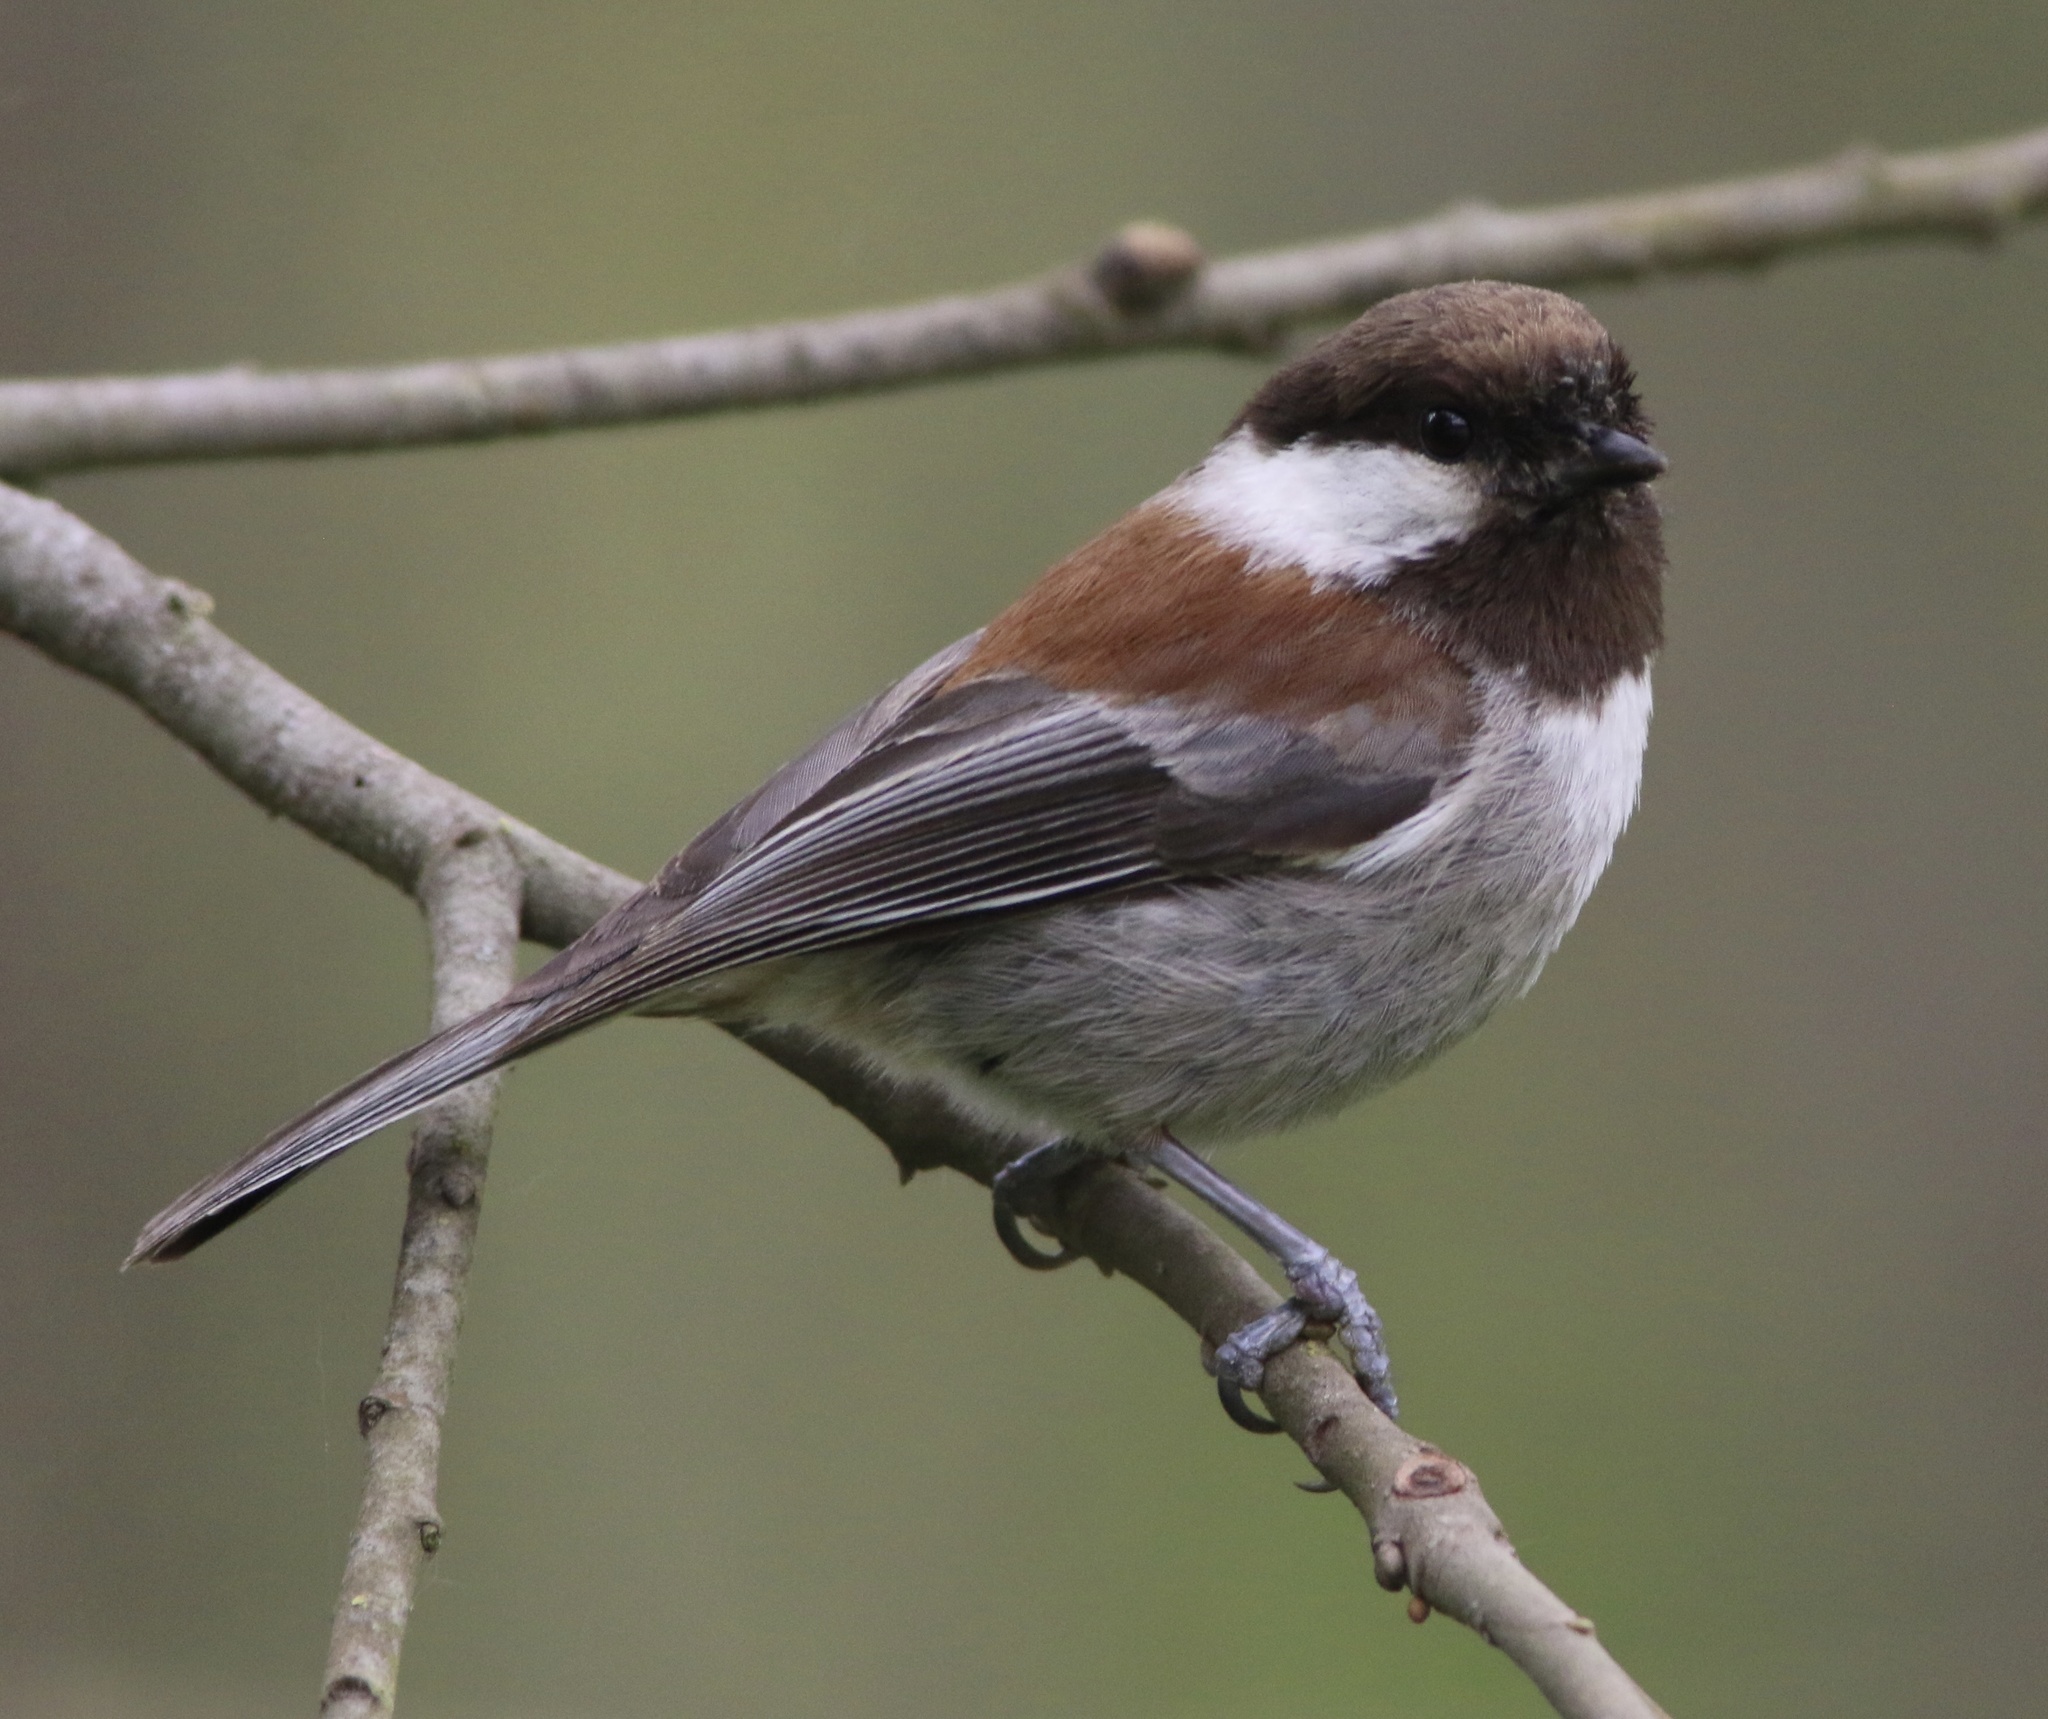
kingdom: Animalia
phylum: Chordata
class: Aves
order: Passeriformes
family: Paridae
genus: Poecile
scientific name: Poecile rufescens
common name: Chestnut-backed chickadee
